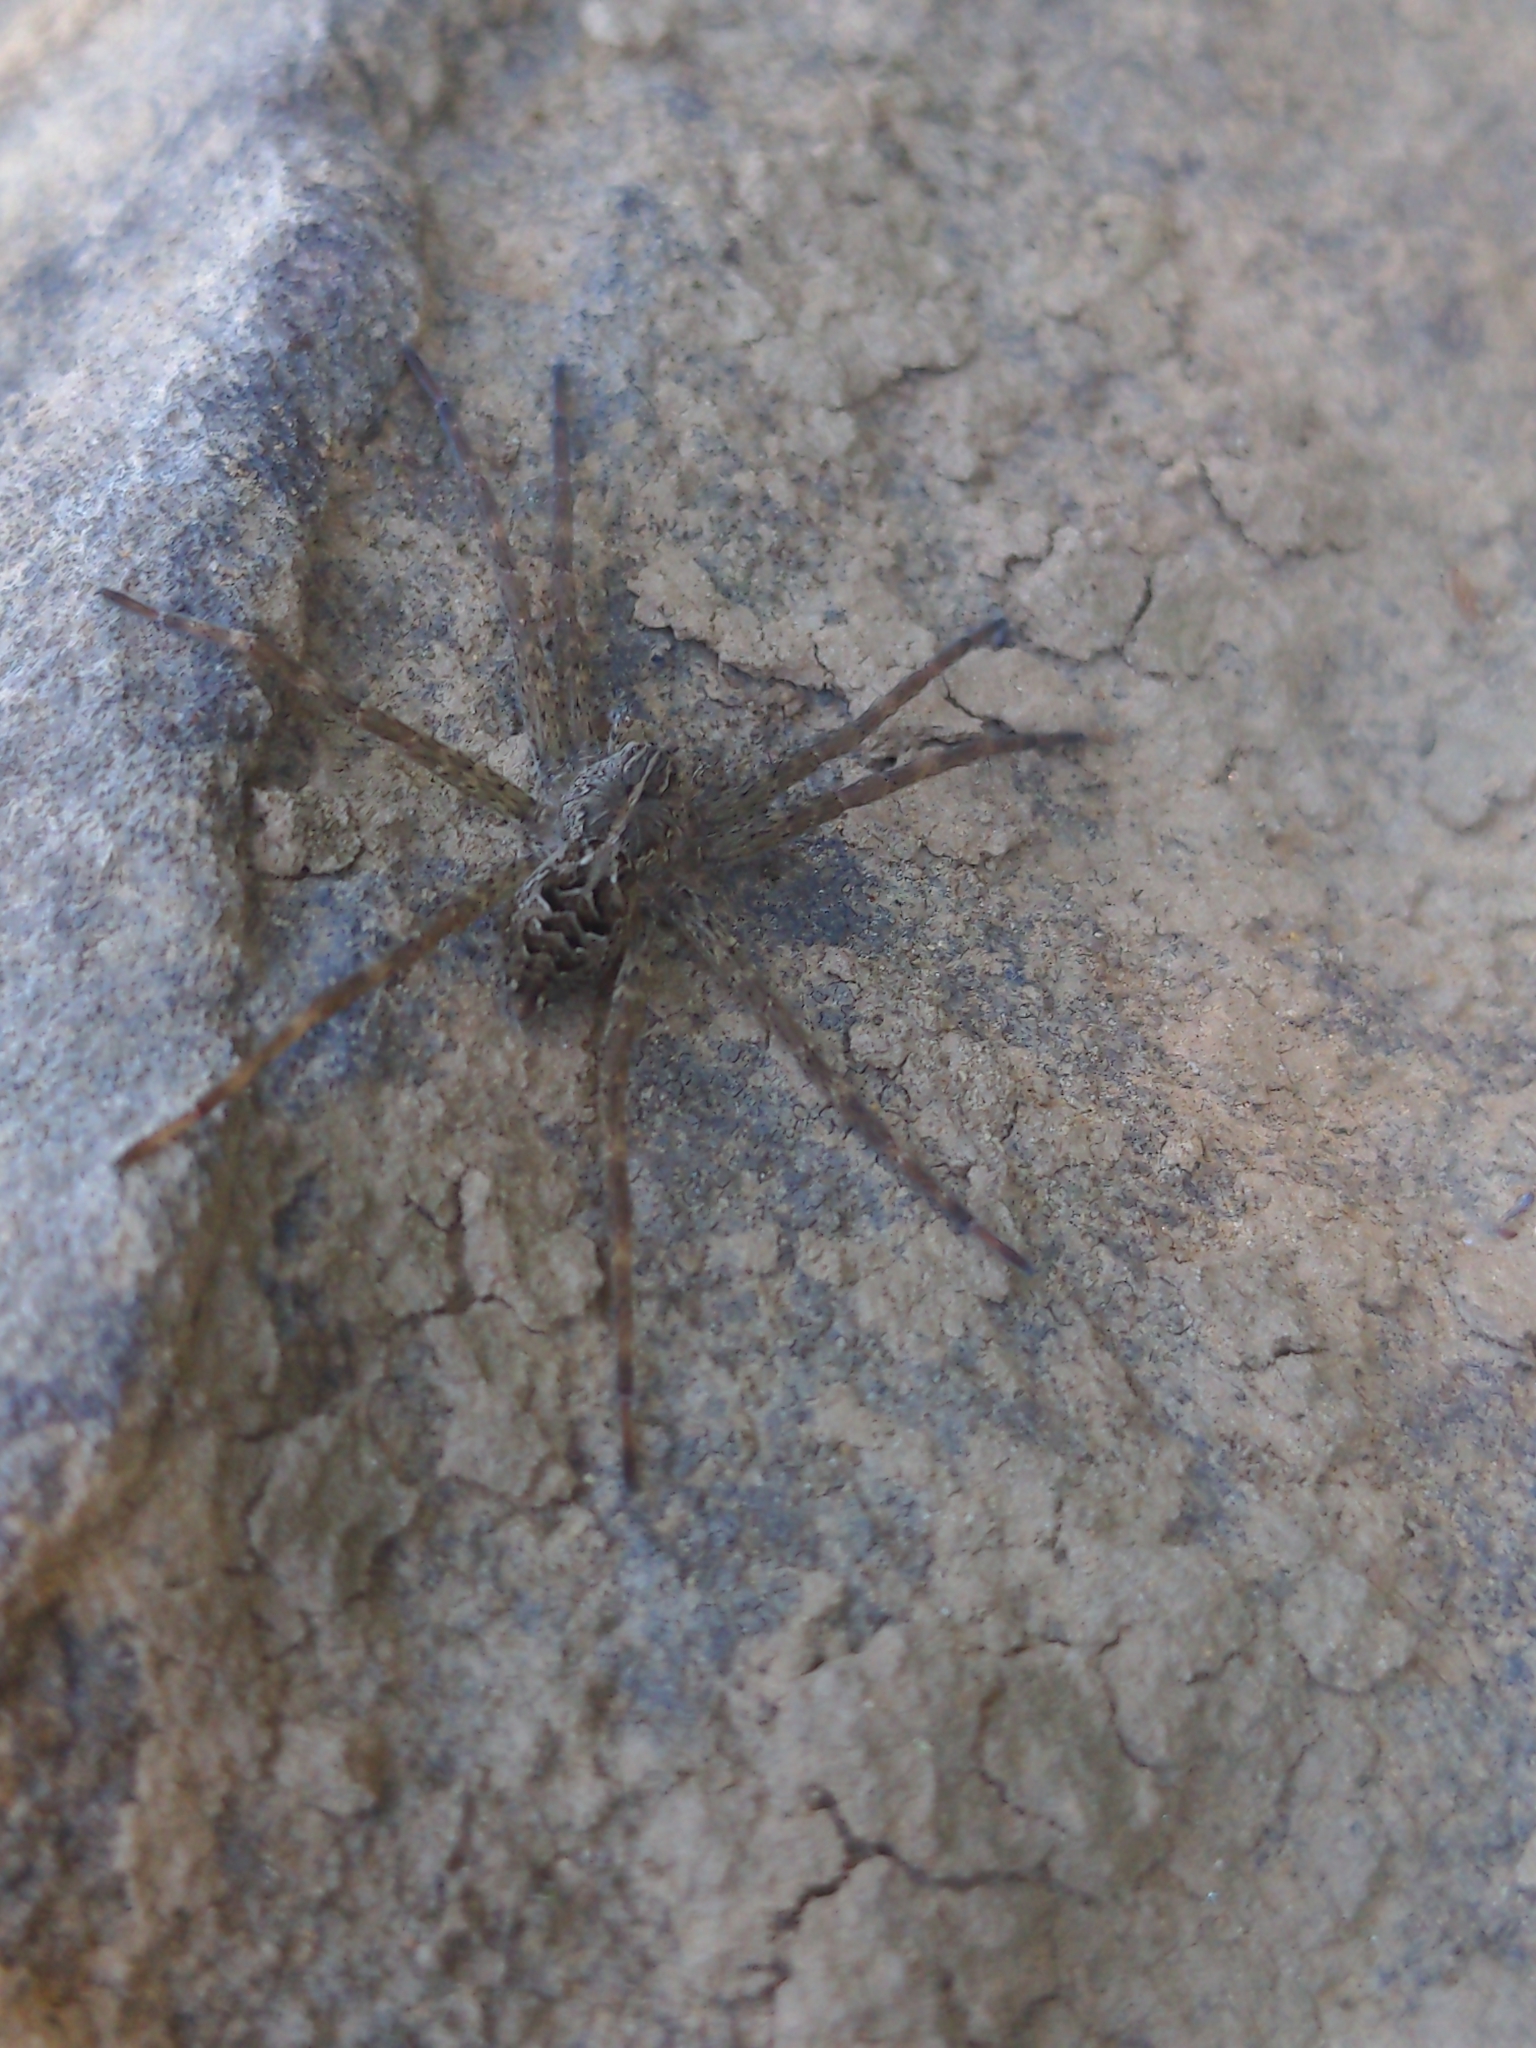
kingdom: Animalia
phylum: Arthropoda
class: Arachnida
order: Araneae
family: Pisauridae
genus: Dolomedes
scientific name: Dolomedes scriptus
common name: Striped fishing spider
